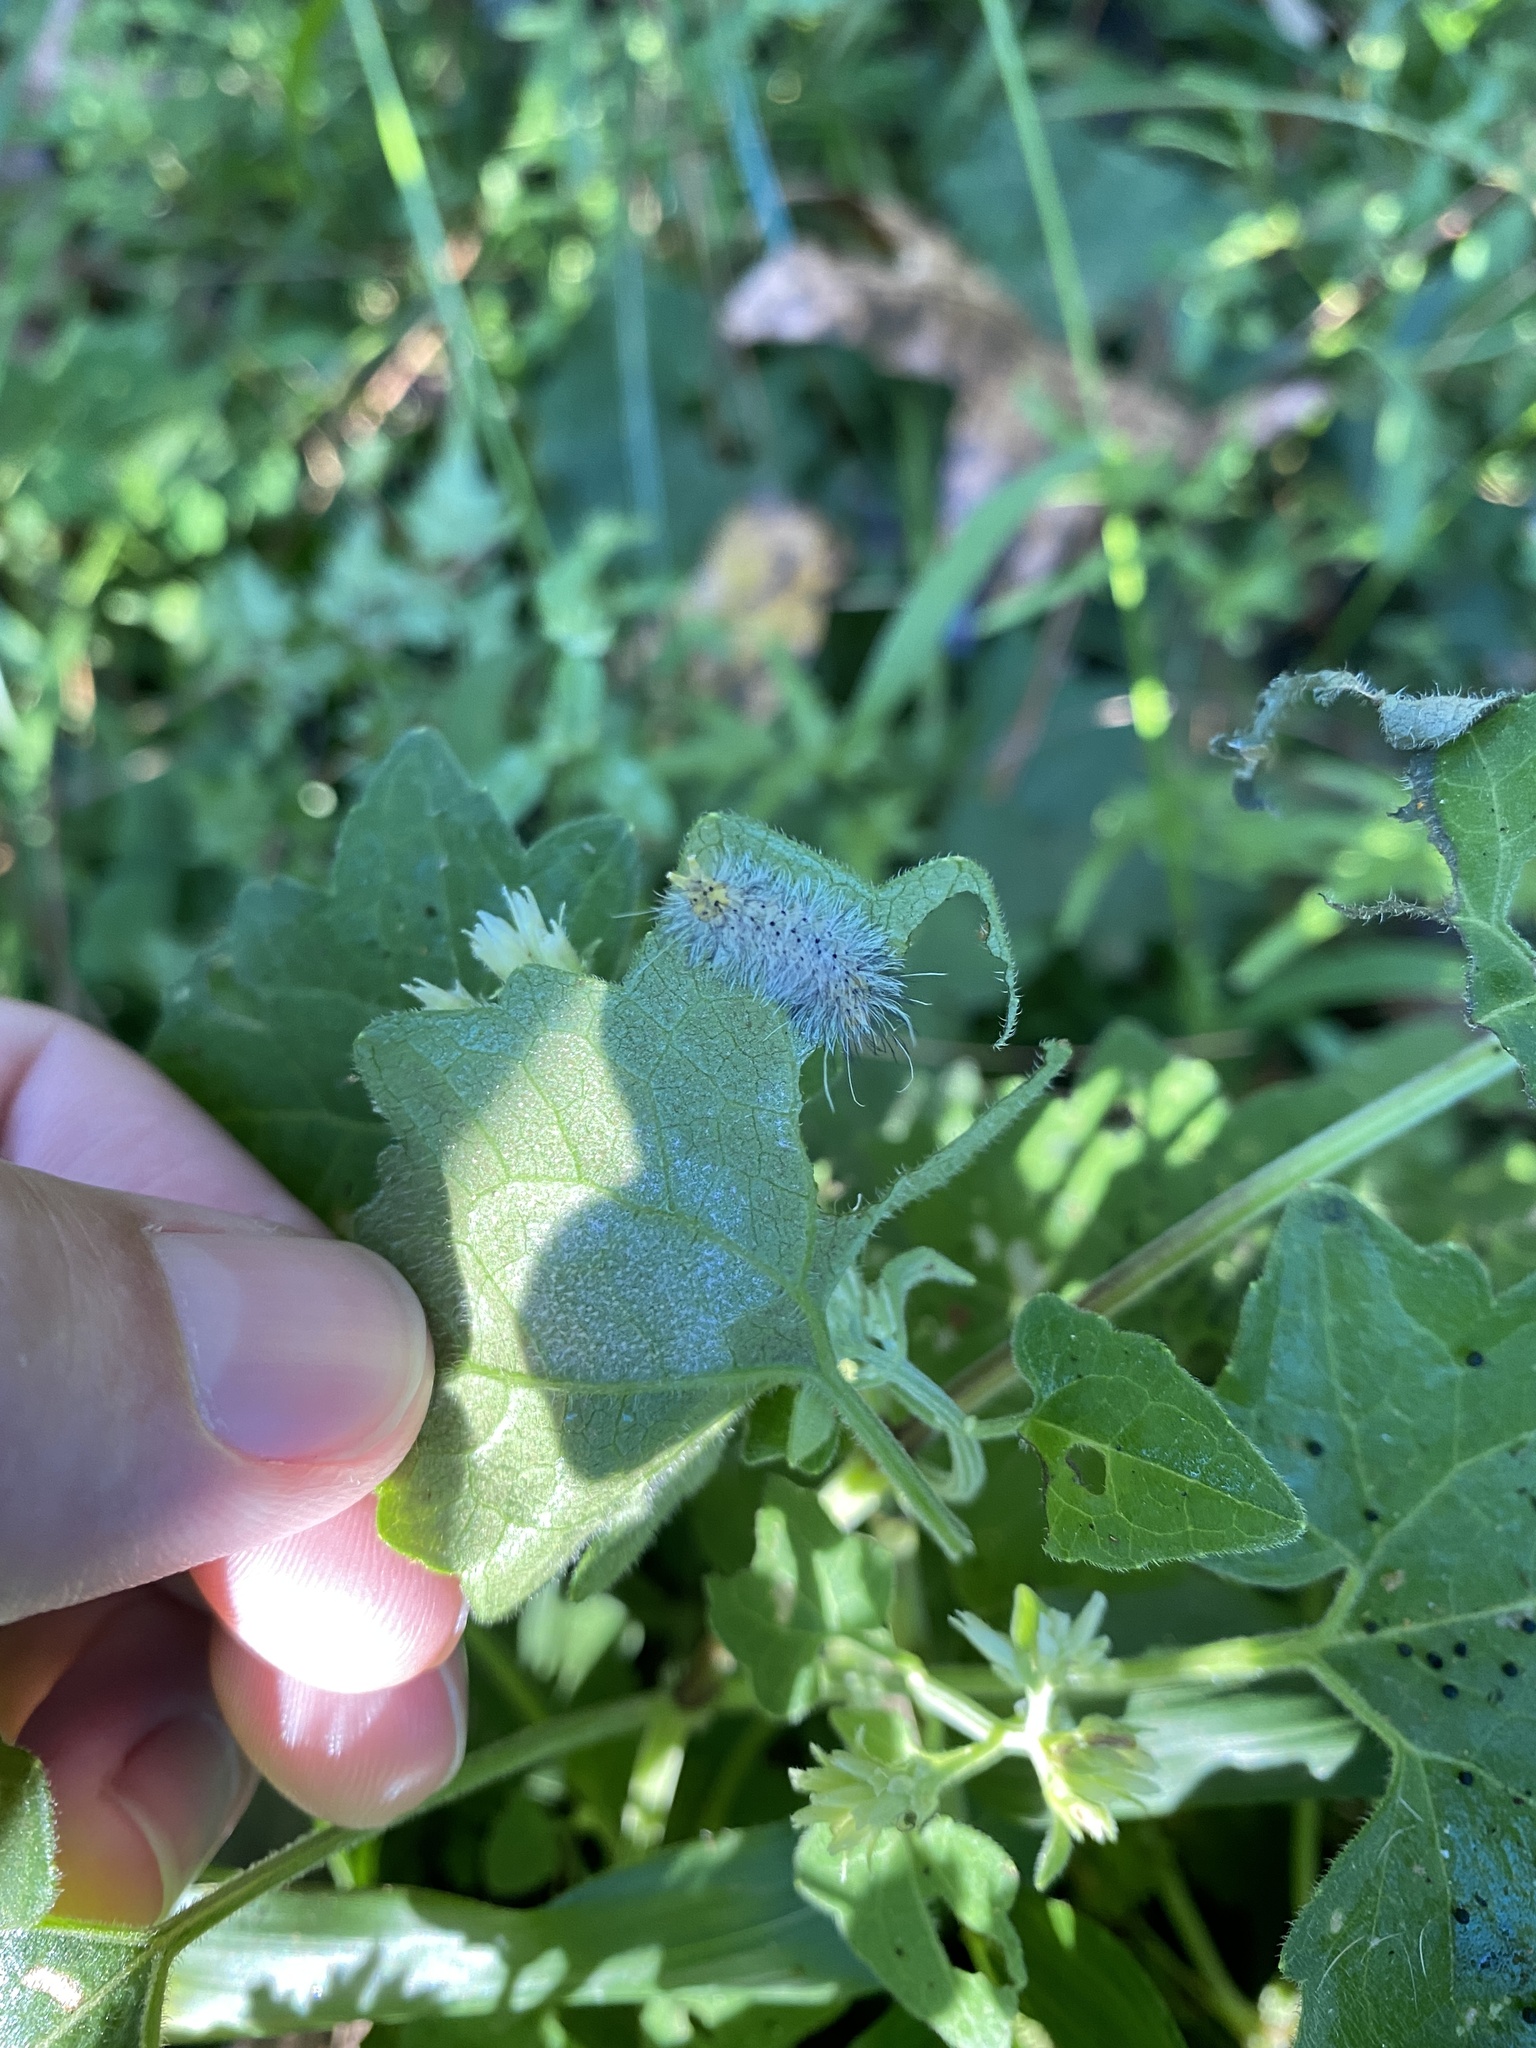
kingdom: Animalia
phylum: Arthropoda
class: Insecta
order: Lepidoptera
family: Erebidae
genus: Cosmosoma
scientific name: Cosmosoma myrodora
